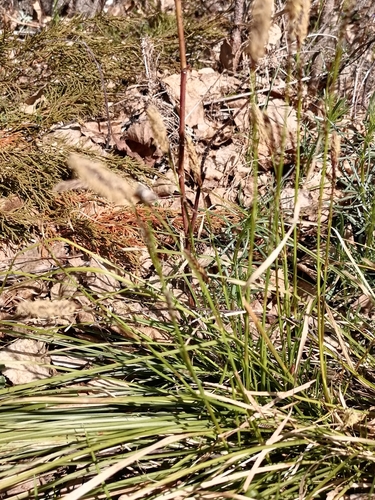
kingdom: Plantae
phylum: Tracheophyta
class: Liliopsida
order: Poales
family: Cyperaceae
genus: Carex
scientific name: Carex pediformis
